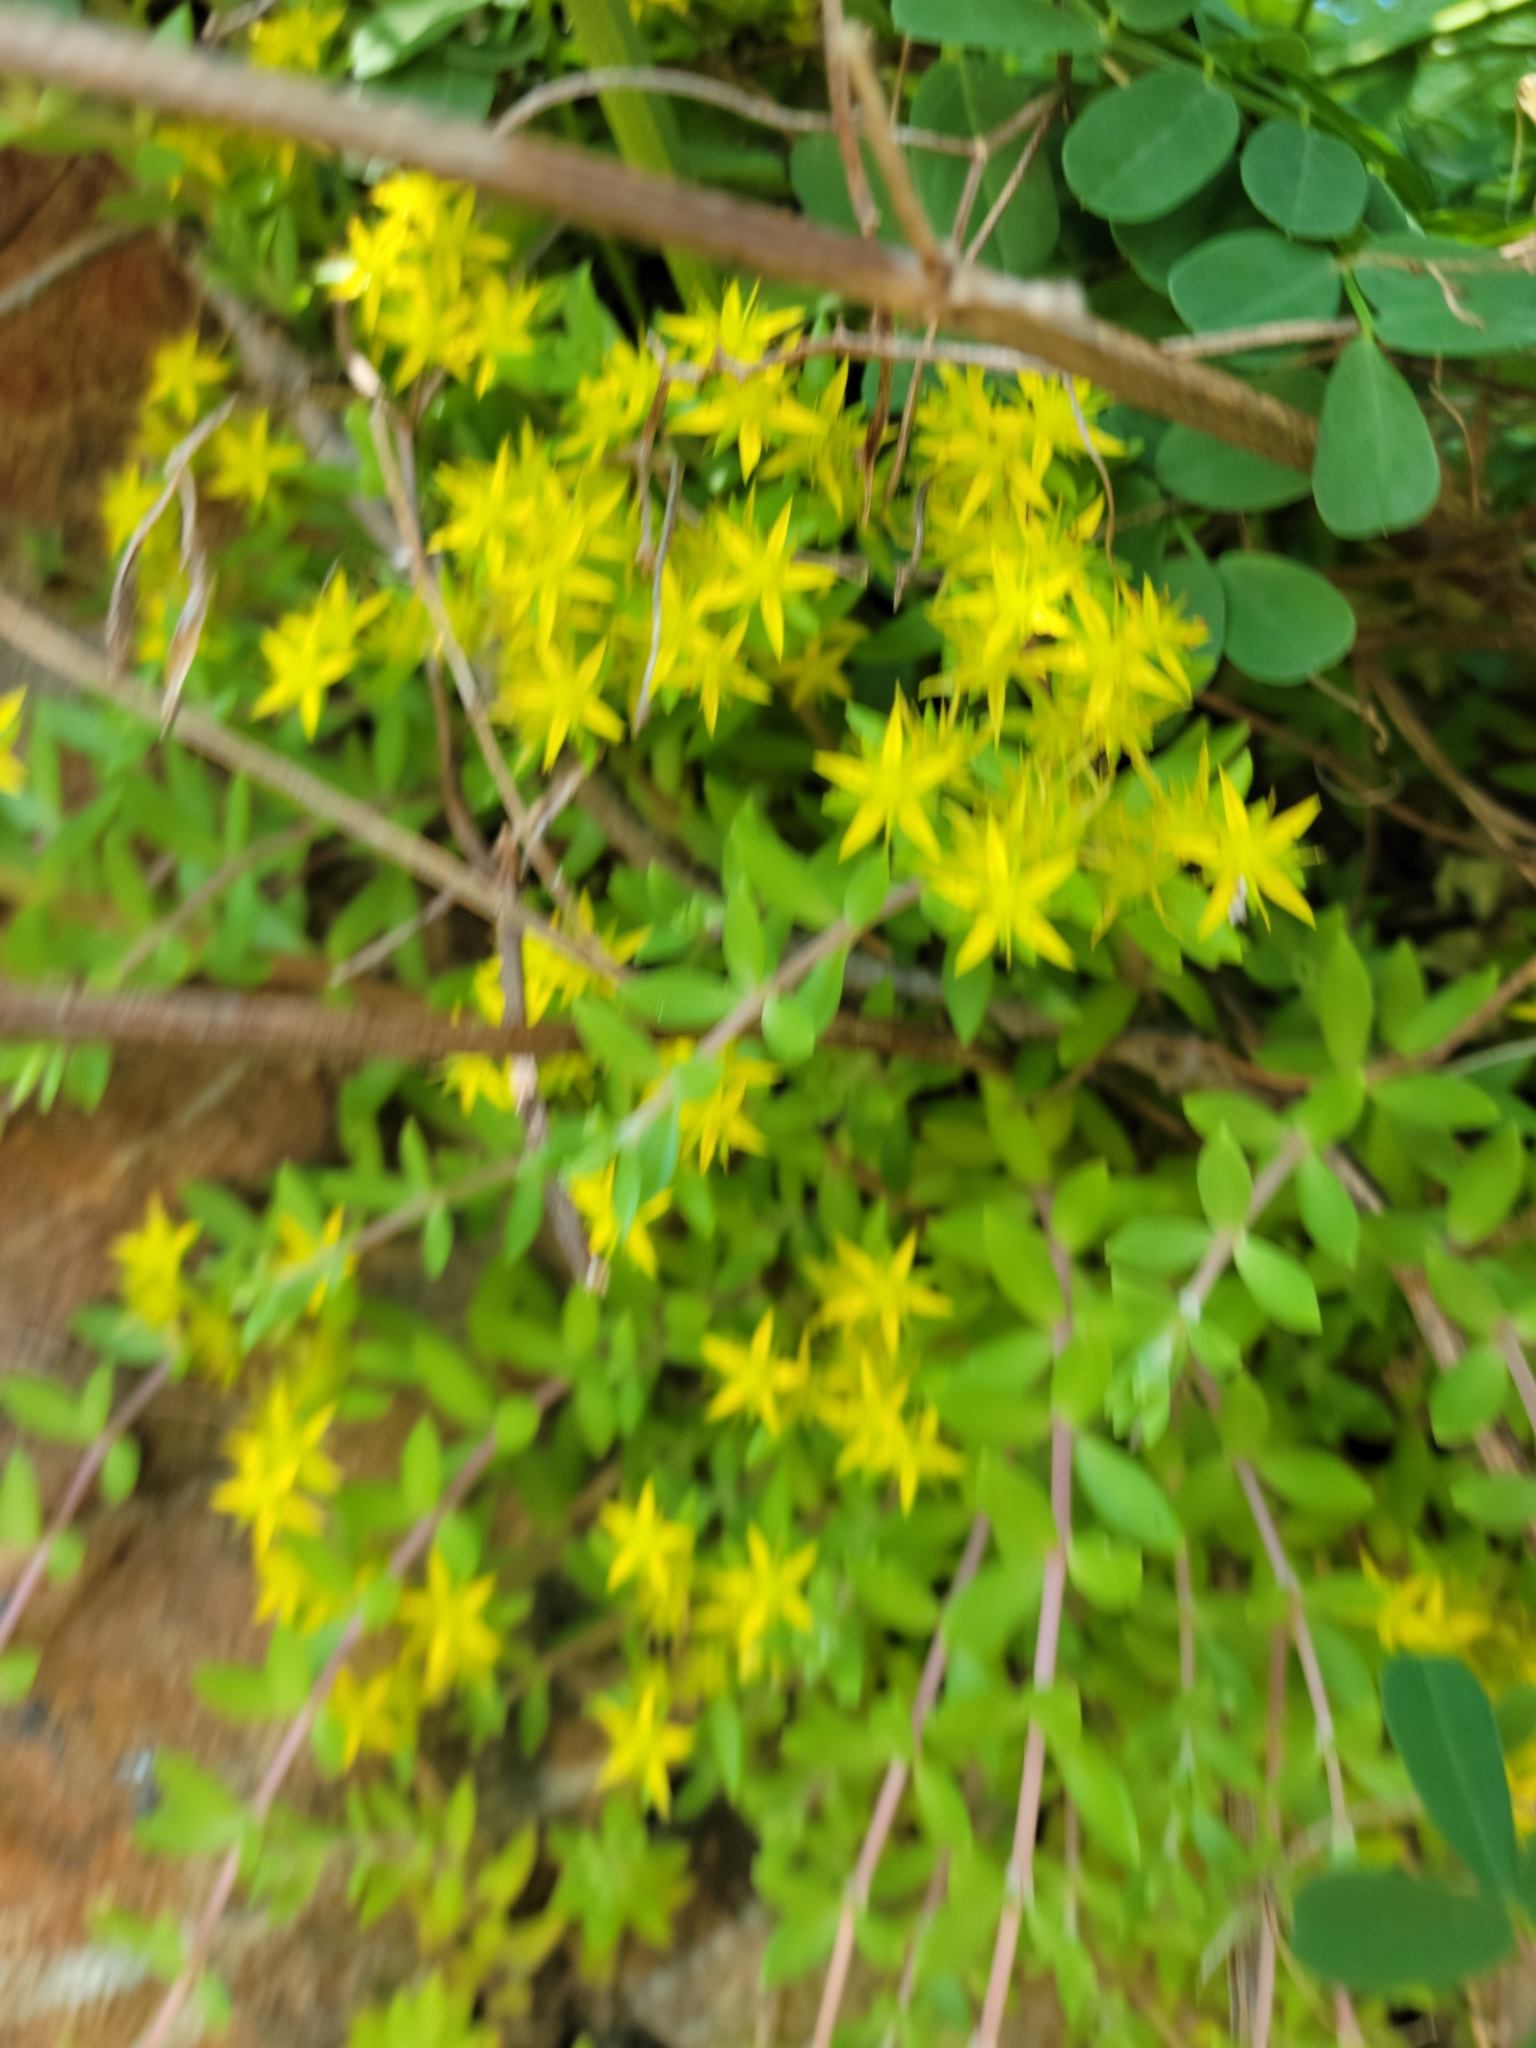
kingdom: Plantae
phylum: Tracheophyta
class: Magnoliopsida
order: Saxifragales
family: Crassulaceae
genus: Sedum
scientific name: Sedum sarmentosum
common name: Stringy stonecrop
